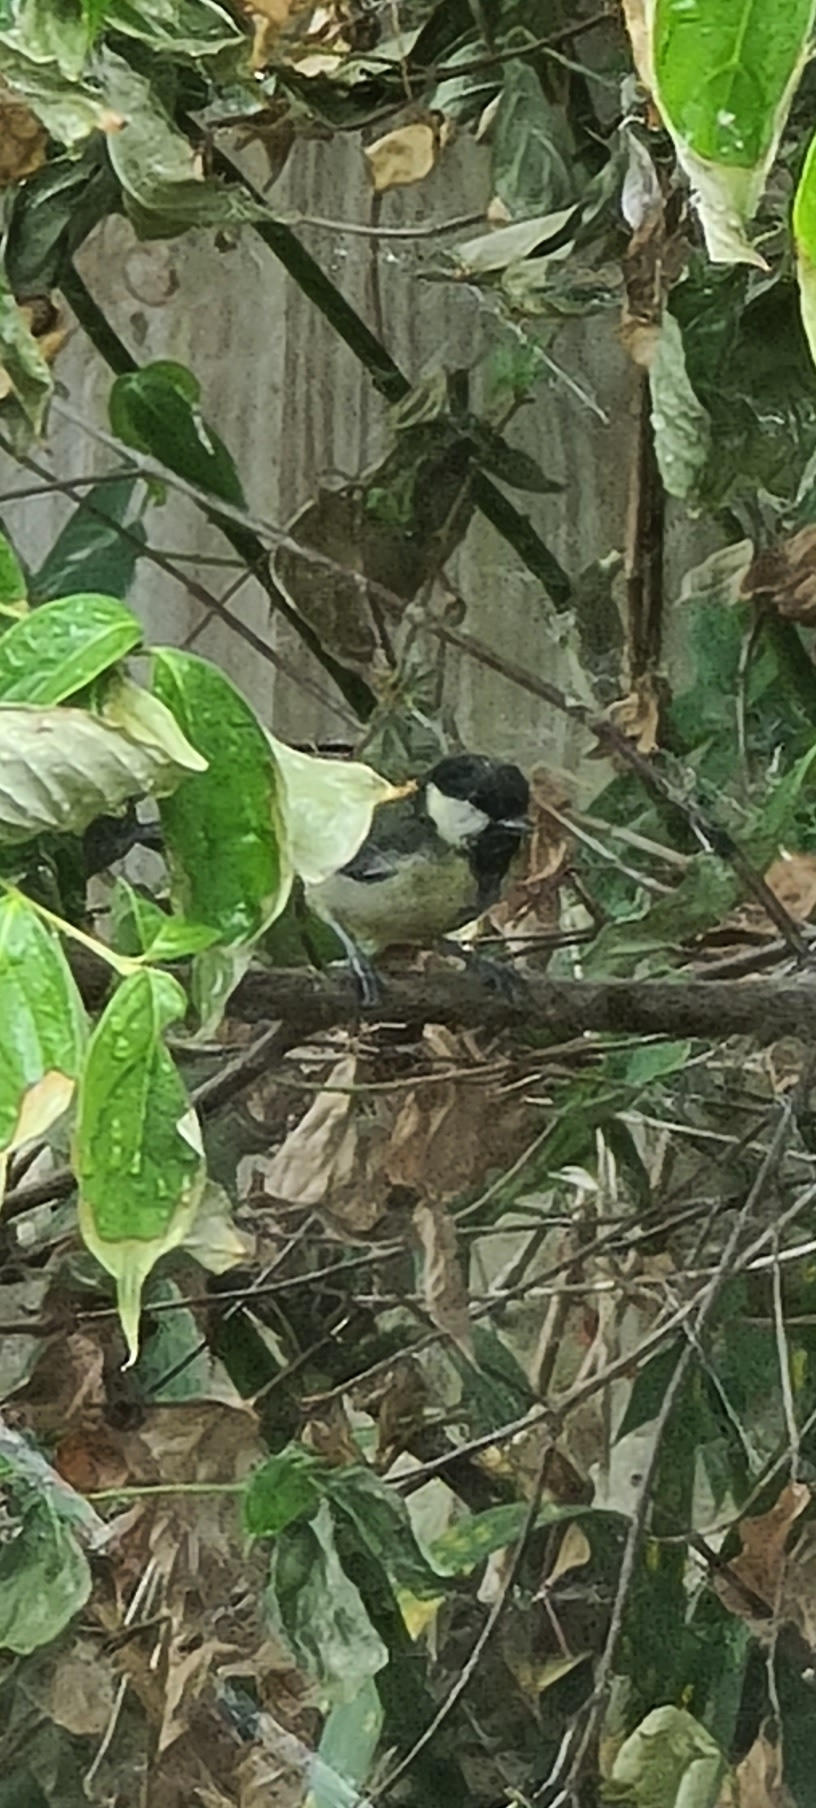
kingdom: Animalia
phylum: Chordata
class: Aves
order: Passeriformes
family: Paridae
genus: Parus
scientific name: Parus major
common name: Great tit
